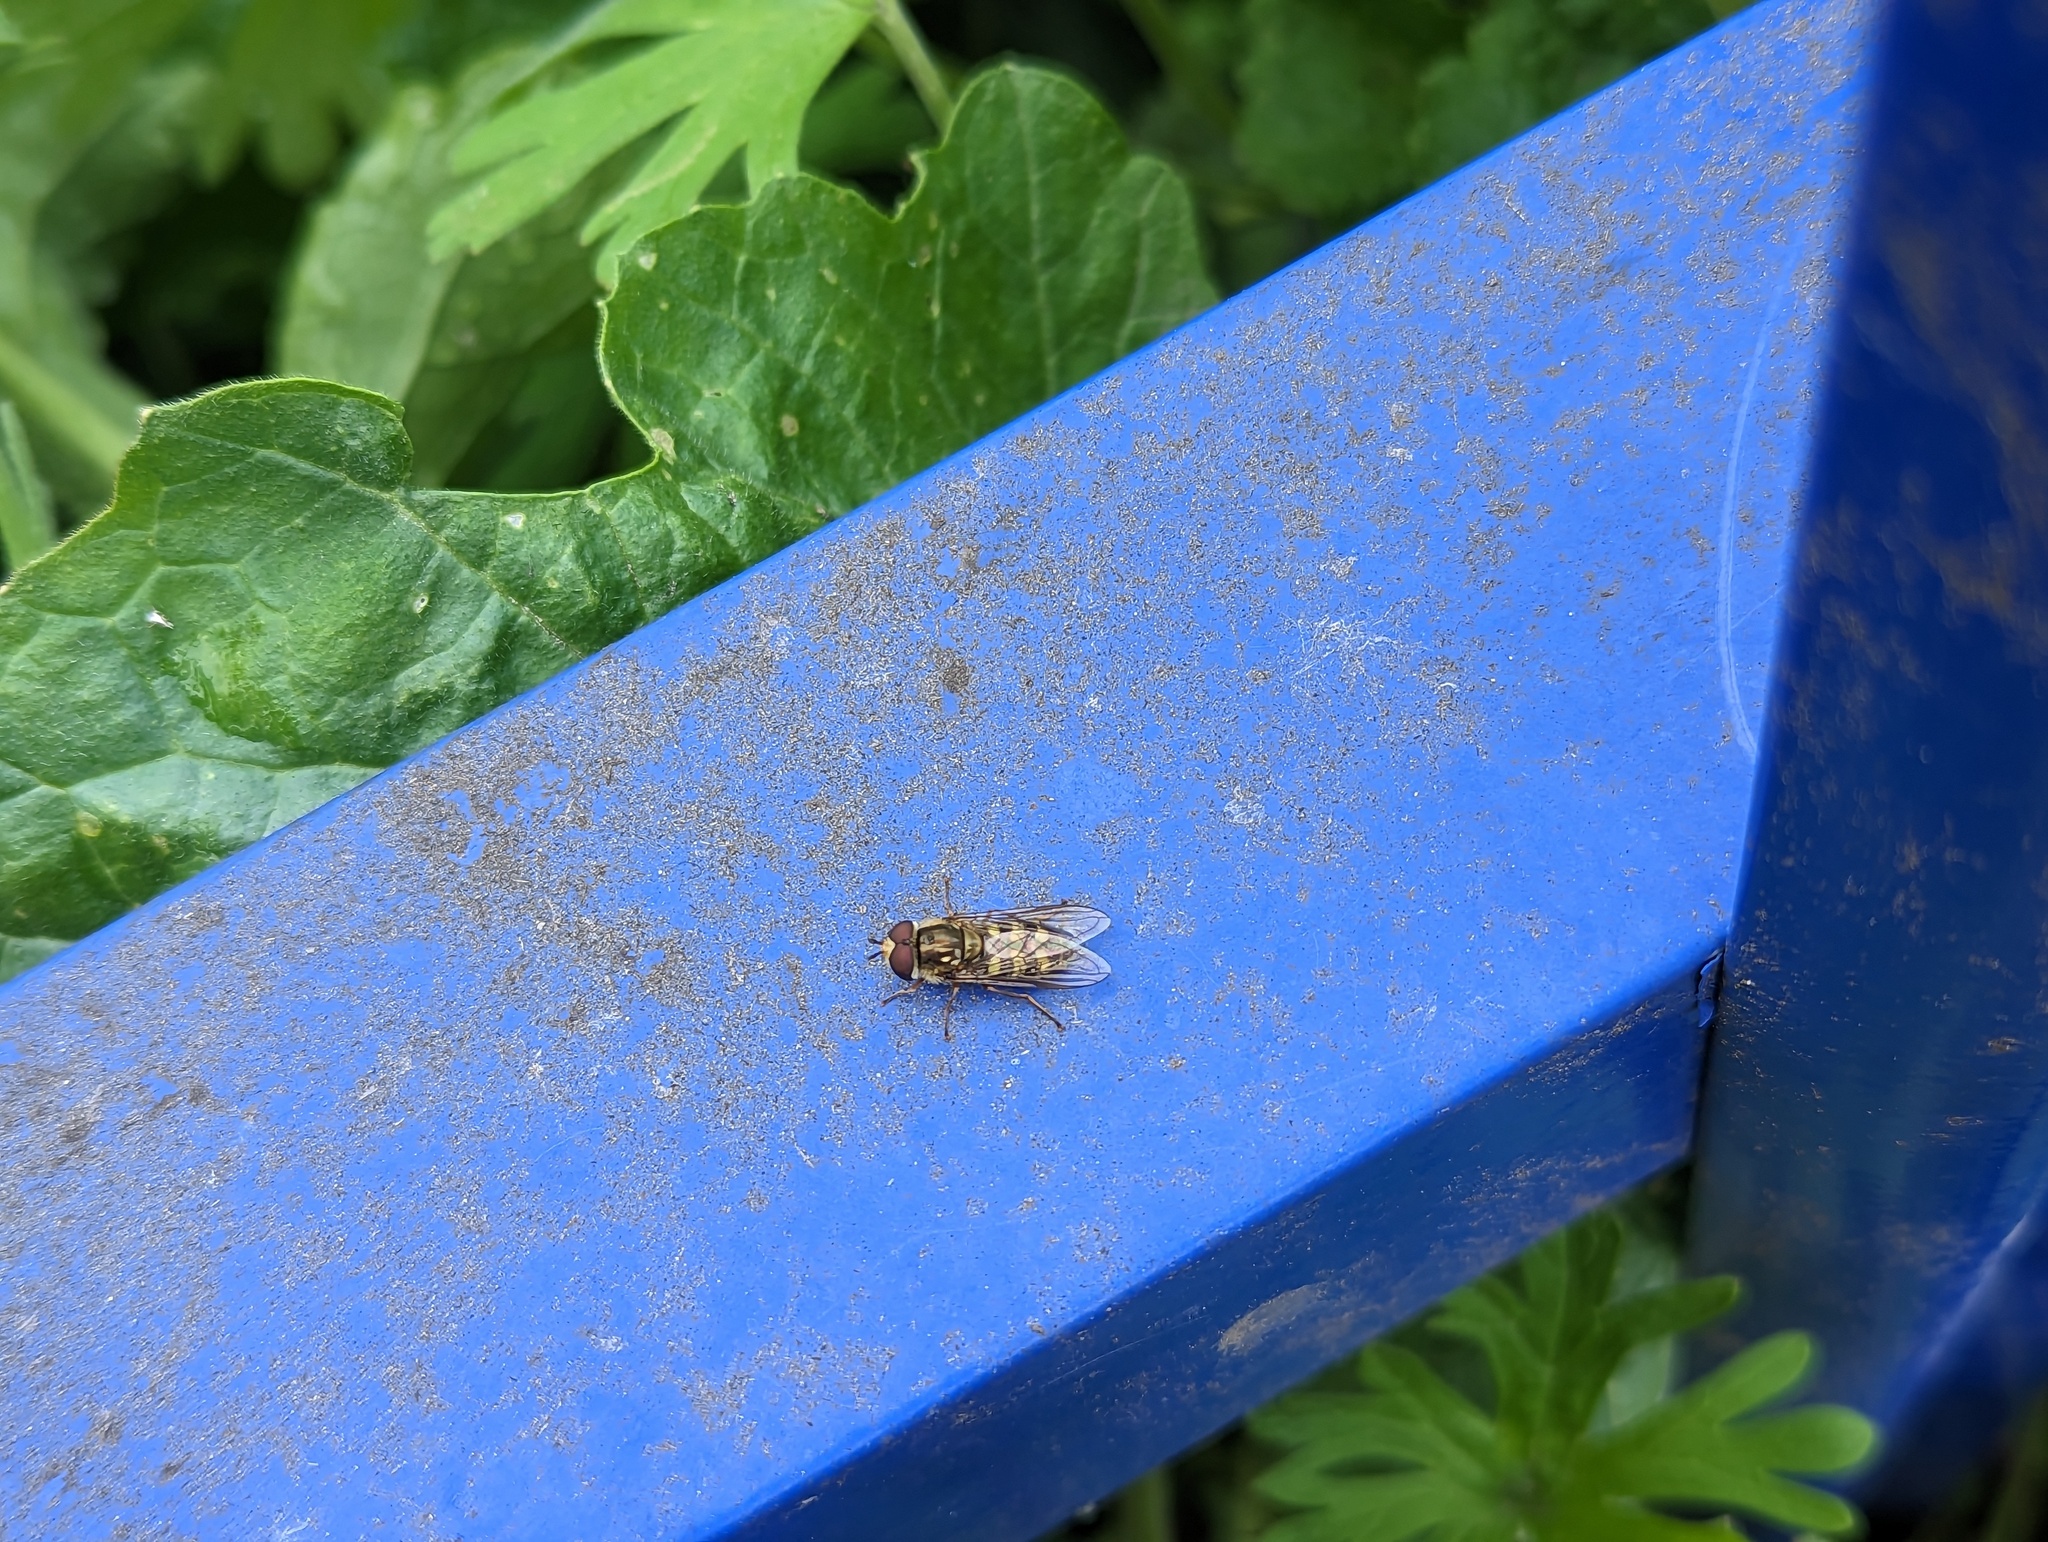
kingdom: Animalia
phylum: Arthropoda
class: Insecta
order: Diptera
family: Syrphidae
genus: Eupeodes
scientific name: Eupeodes
